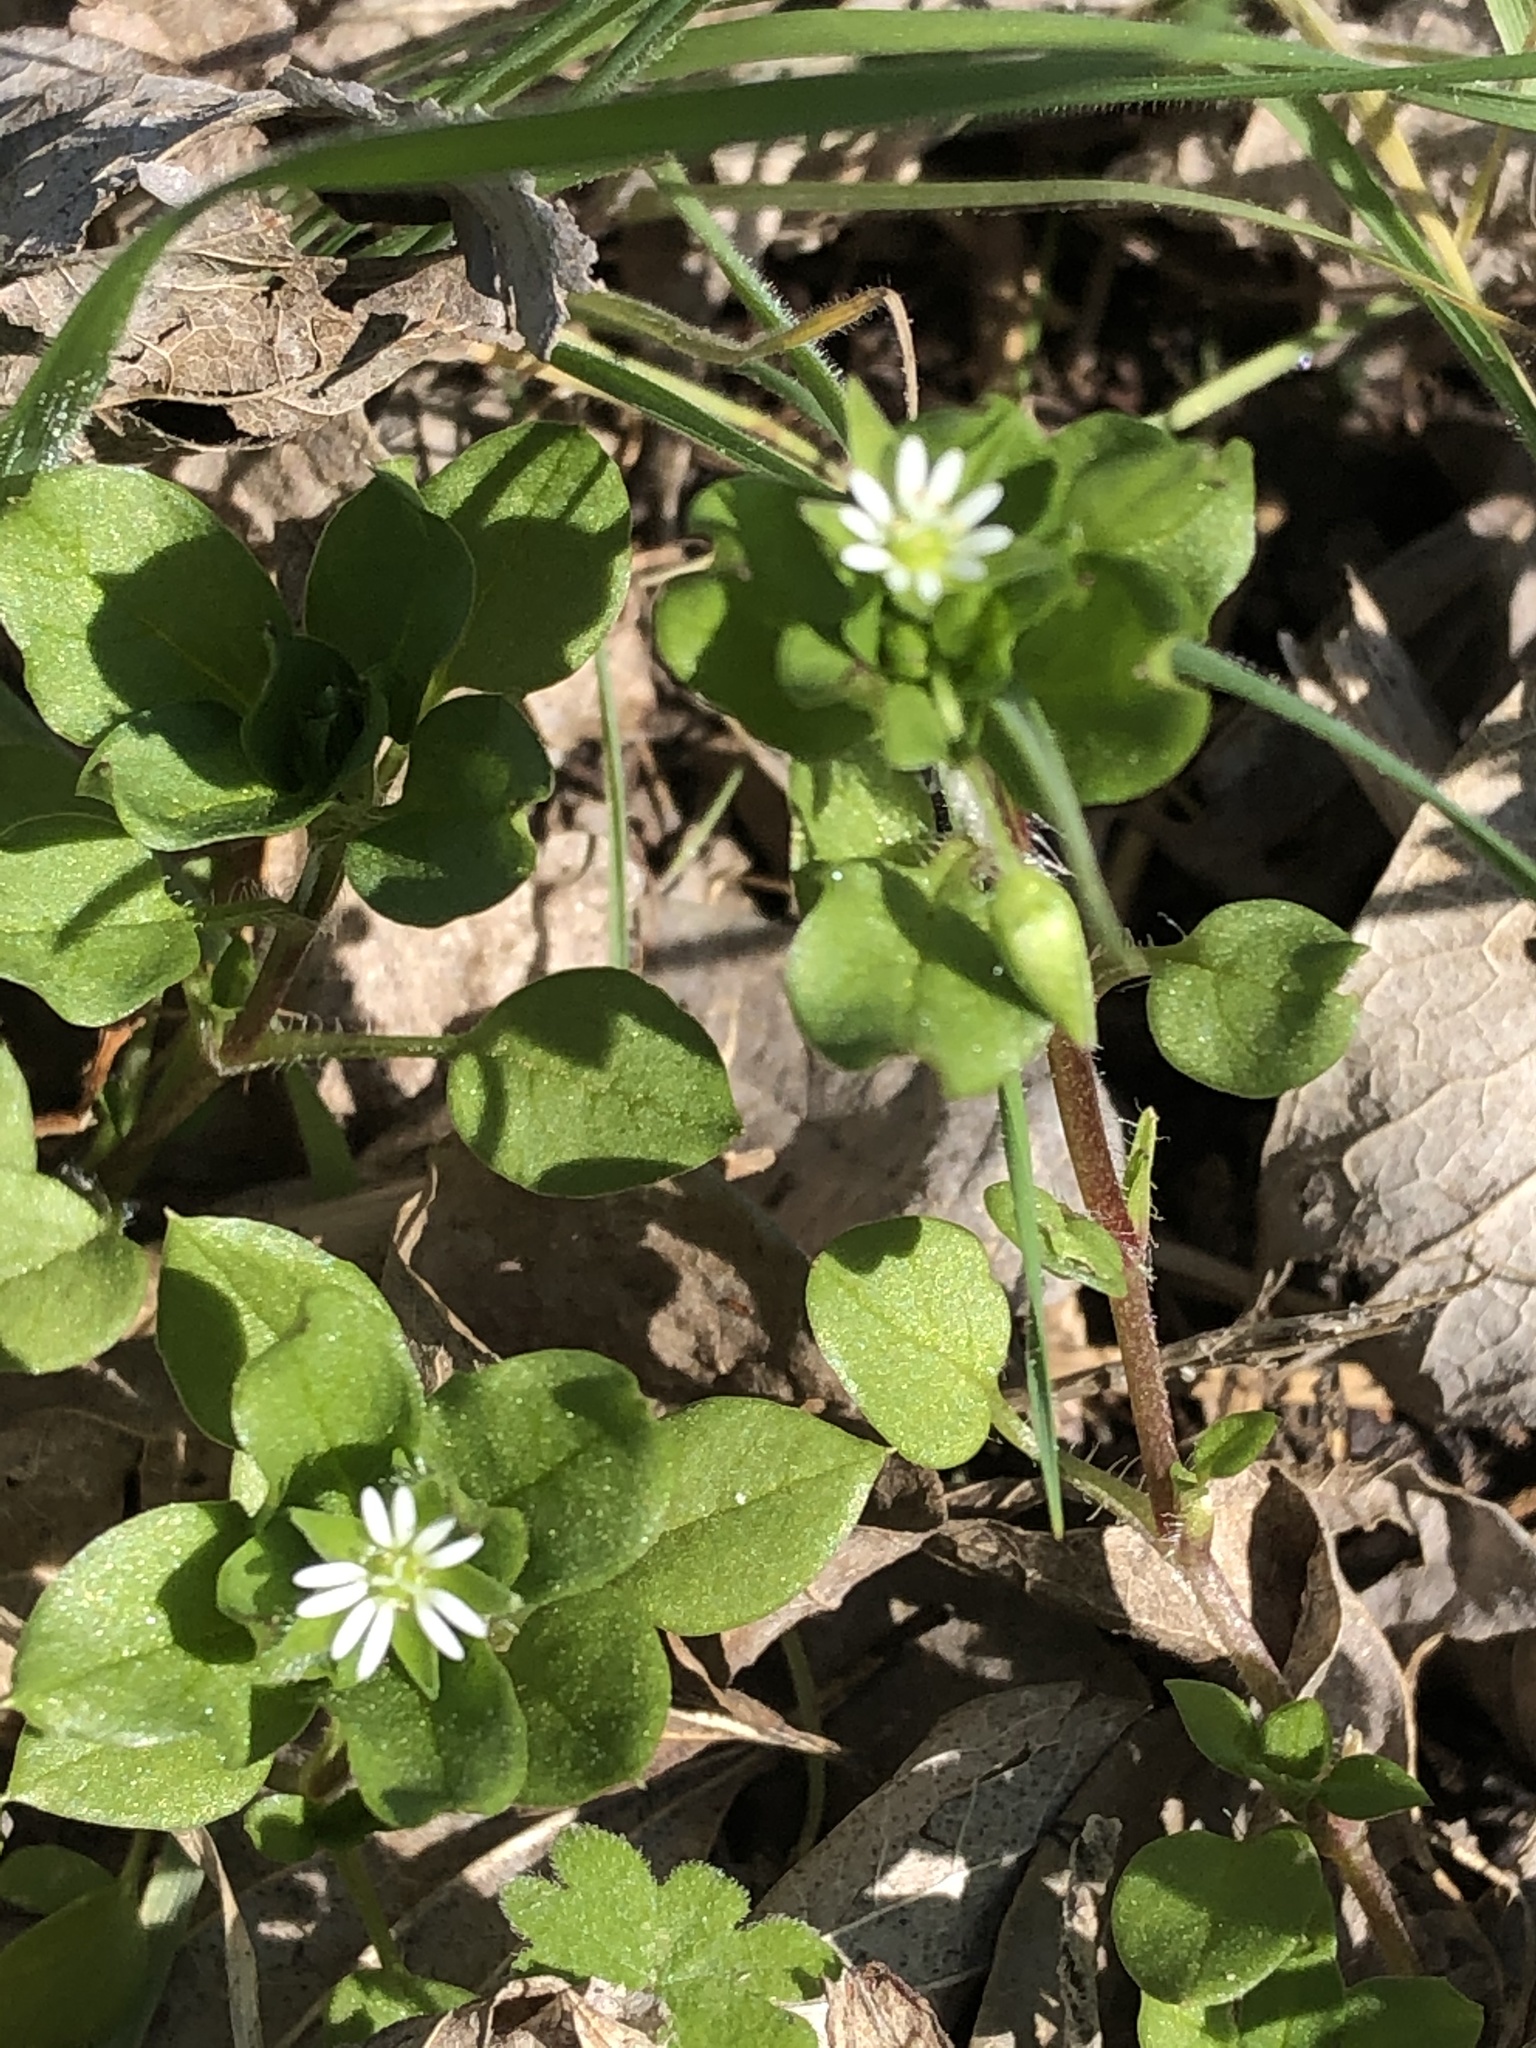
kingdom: Plantae
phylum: Tracheophyta
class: Magnoliopsida
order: Caryophyllales
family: Caryophyllaceae
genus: Stellaria
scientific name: Stellaria media
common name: Common chickweed
